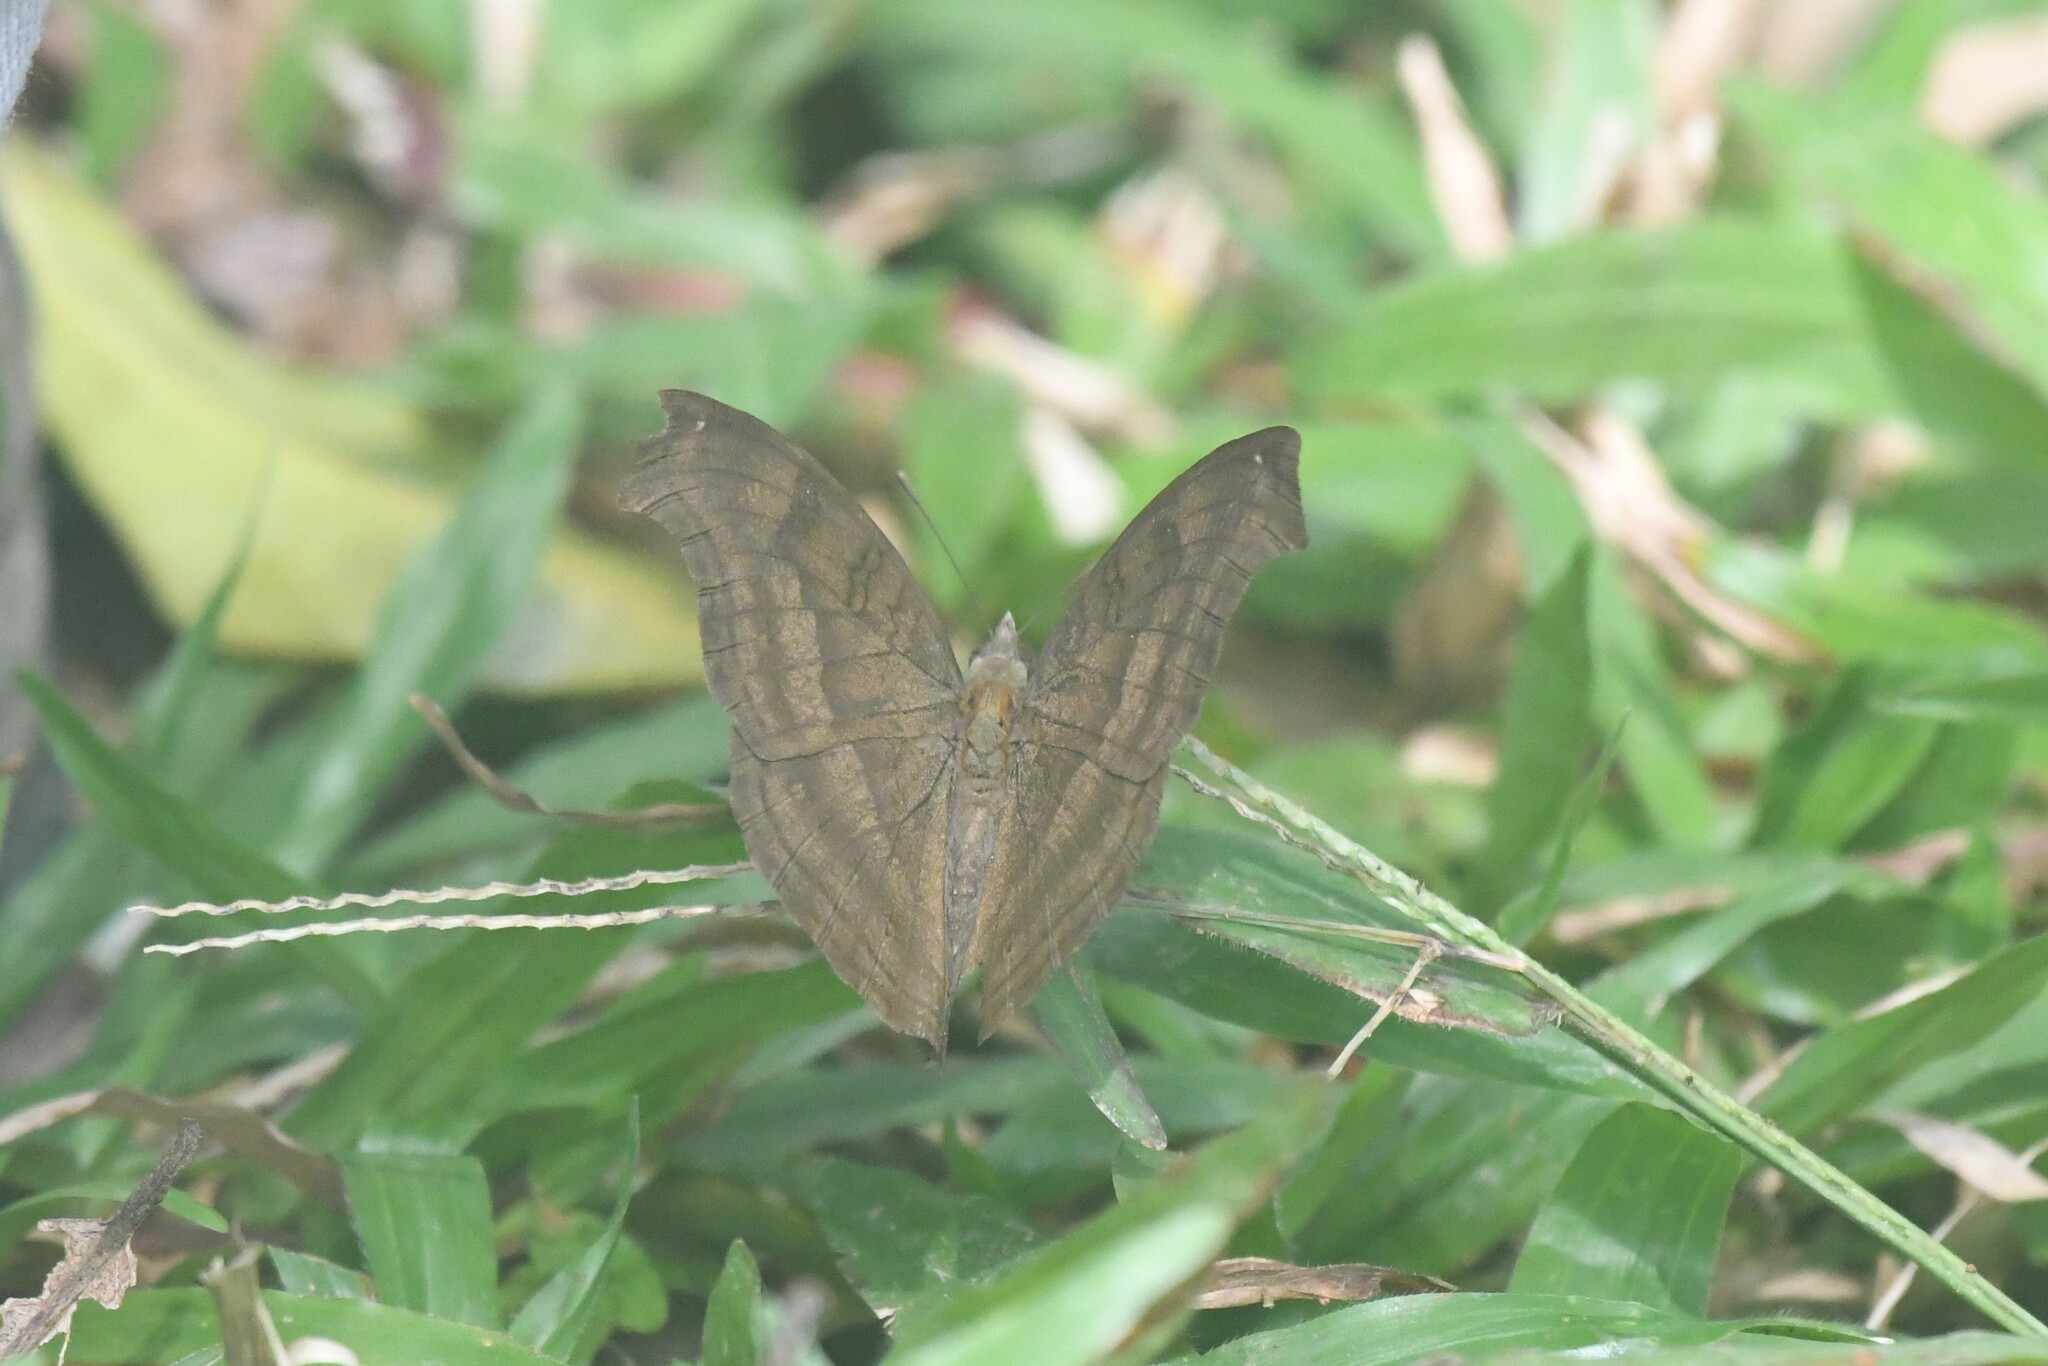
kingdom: Animalia
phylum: Arthropoda
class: Insecta
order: Lepidoptera
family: Nymphalidae
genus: Junonia
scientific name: Junonia iphita
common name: Chocolate pansy
